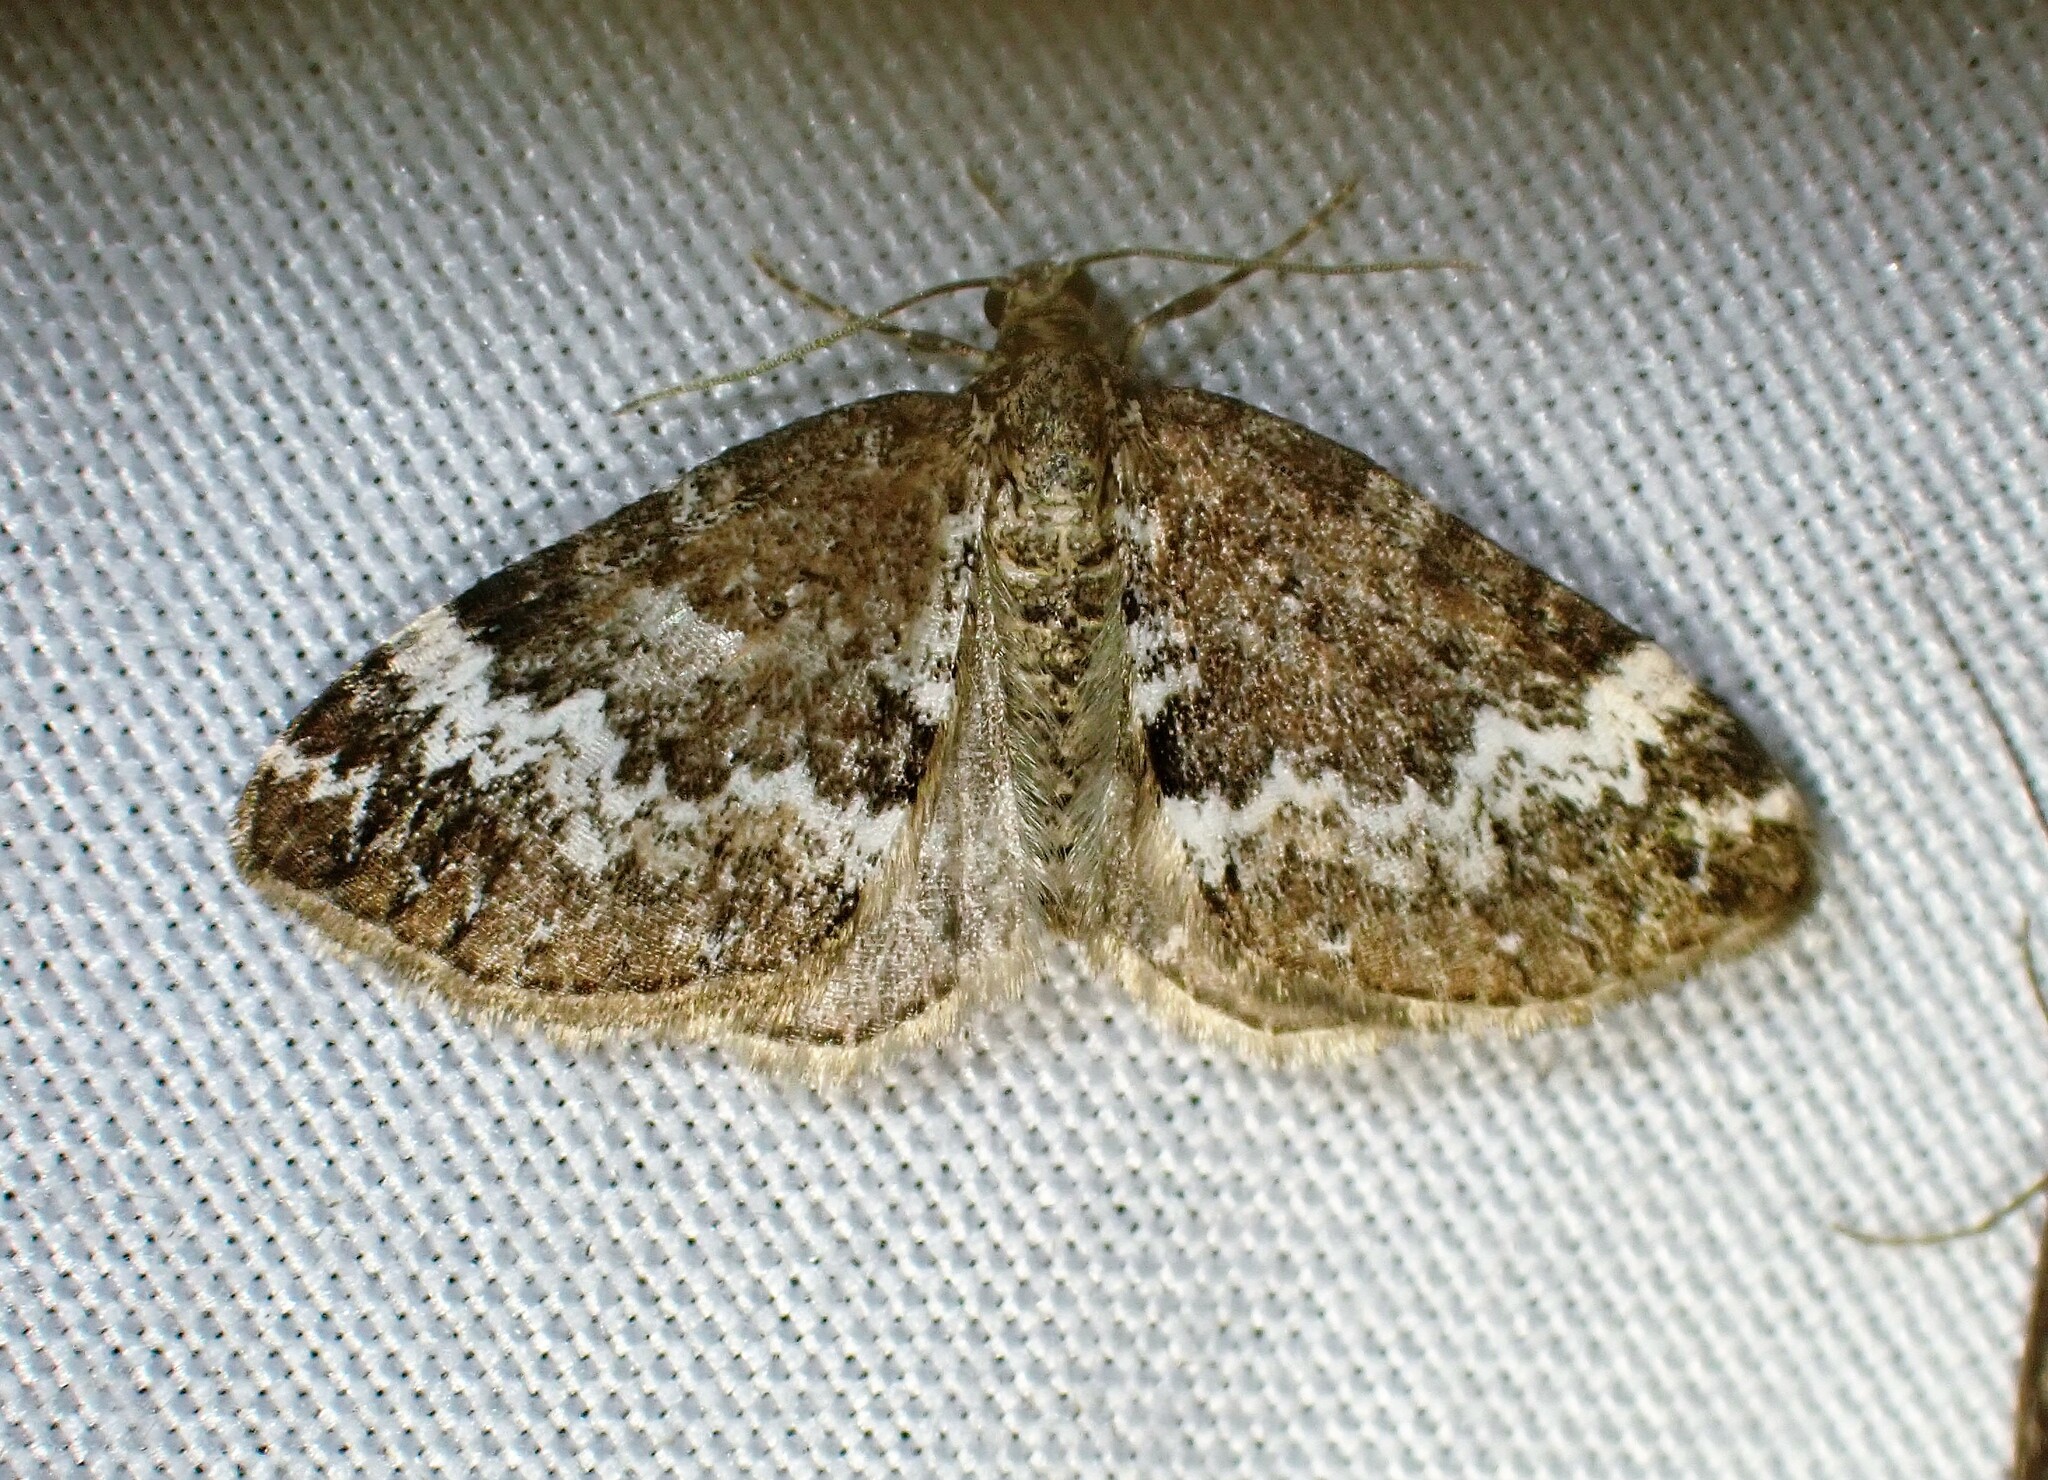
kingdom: Animalia
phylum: Arthropoda
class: Insecta
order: Lepidoptera
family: Geometridae
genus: Perizoma
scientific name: Perizoma alchemillata
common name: Small rivulet
